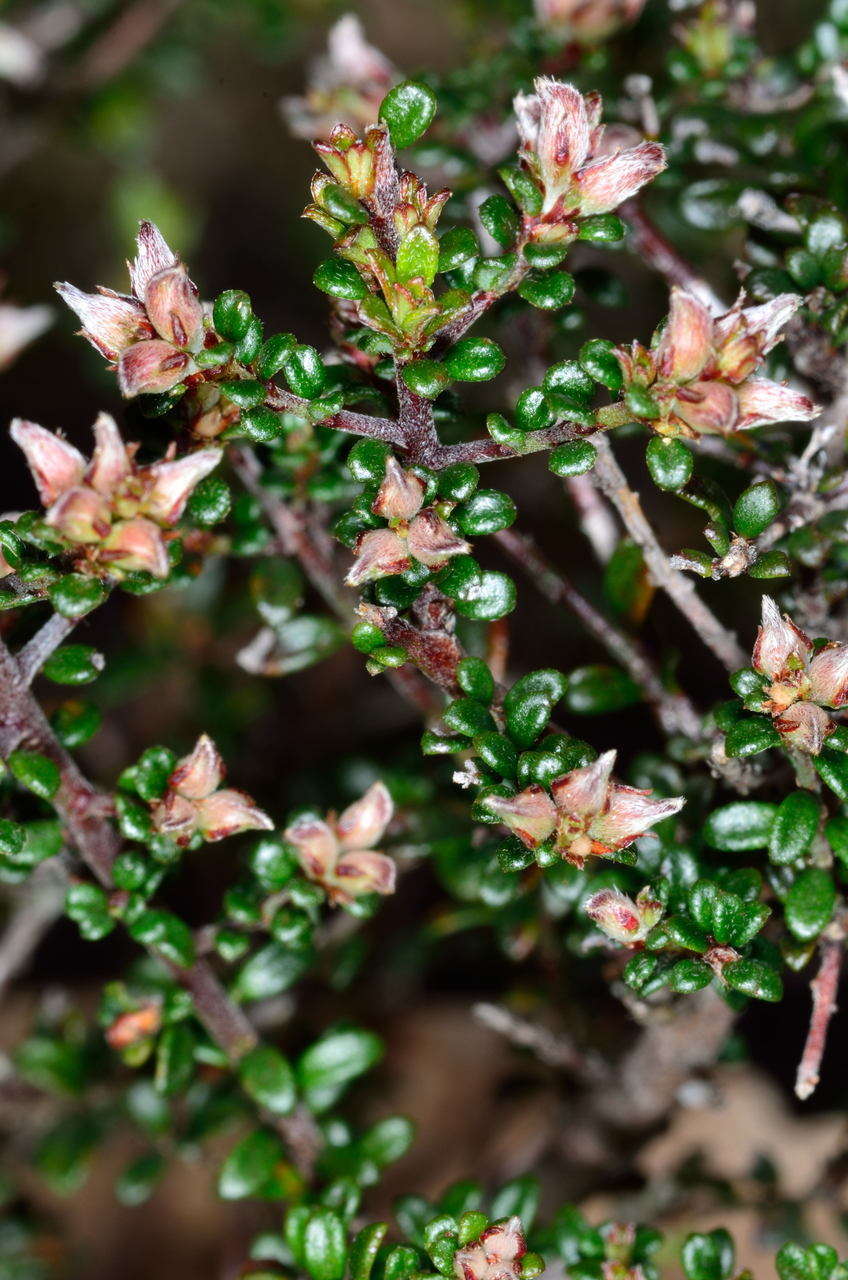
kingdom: Plantae
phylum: Tracheophyta
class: Magnoliopsida
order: Fabales
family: Fabaceae
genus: Pultenaea
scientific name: Pultenaea gunnii
